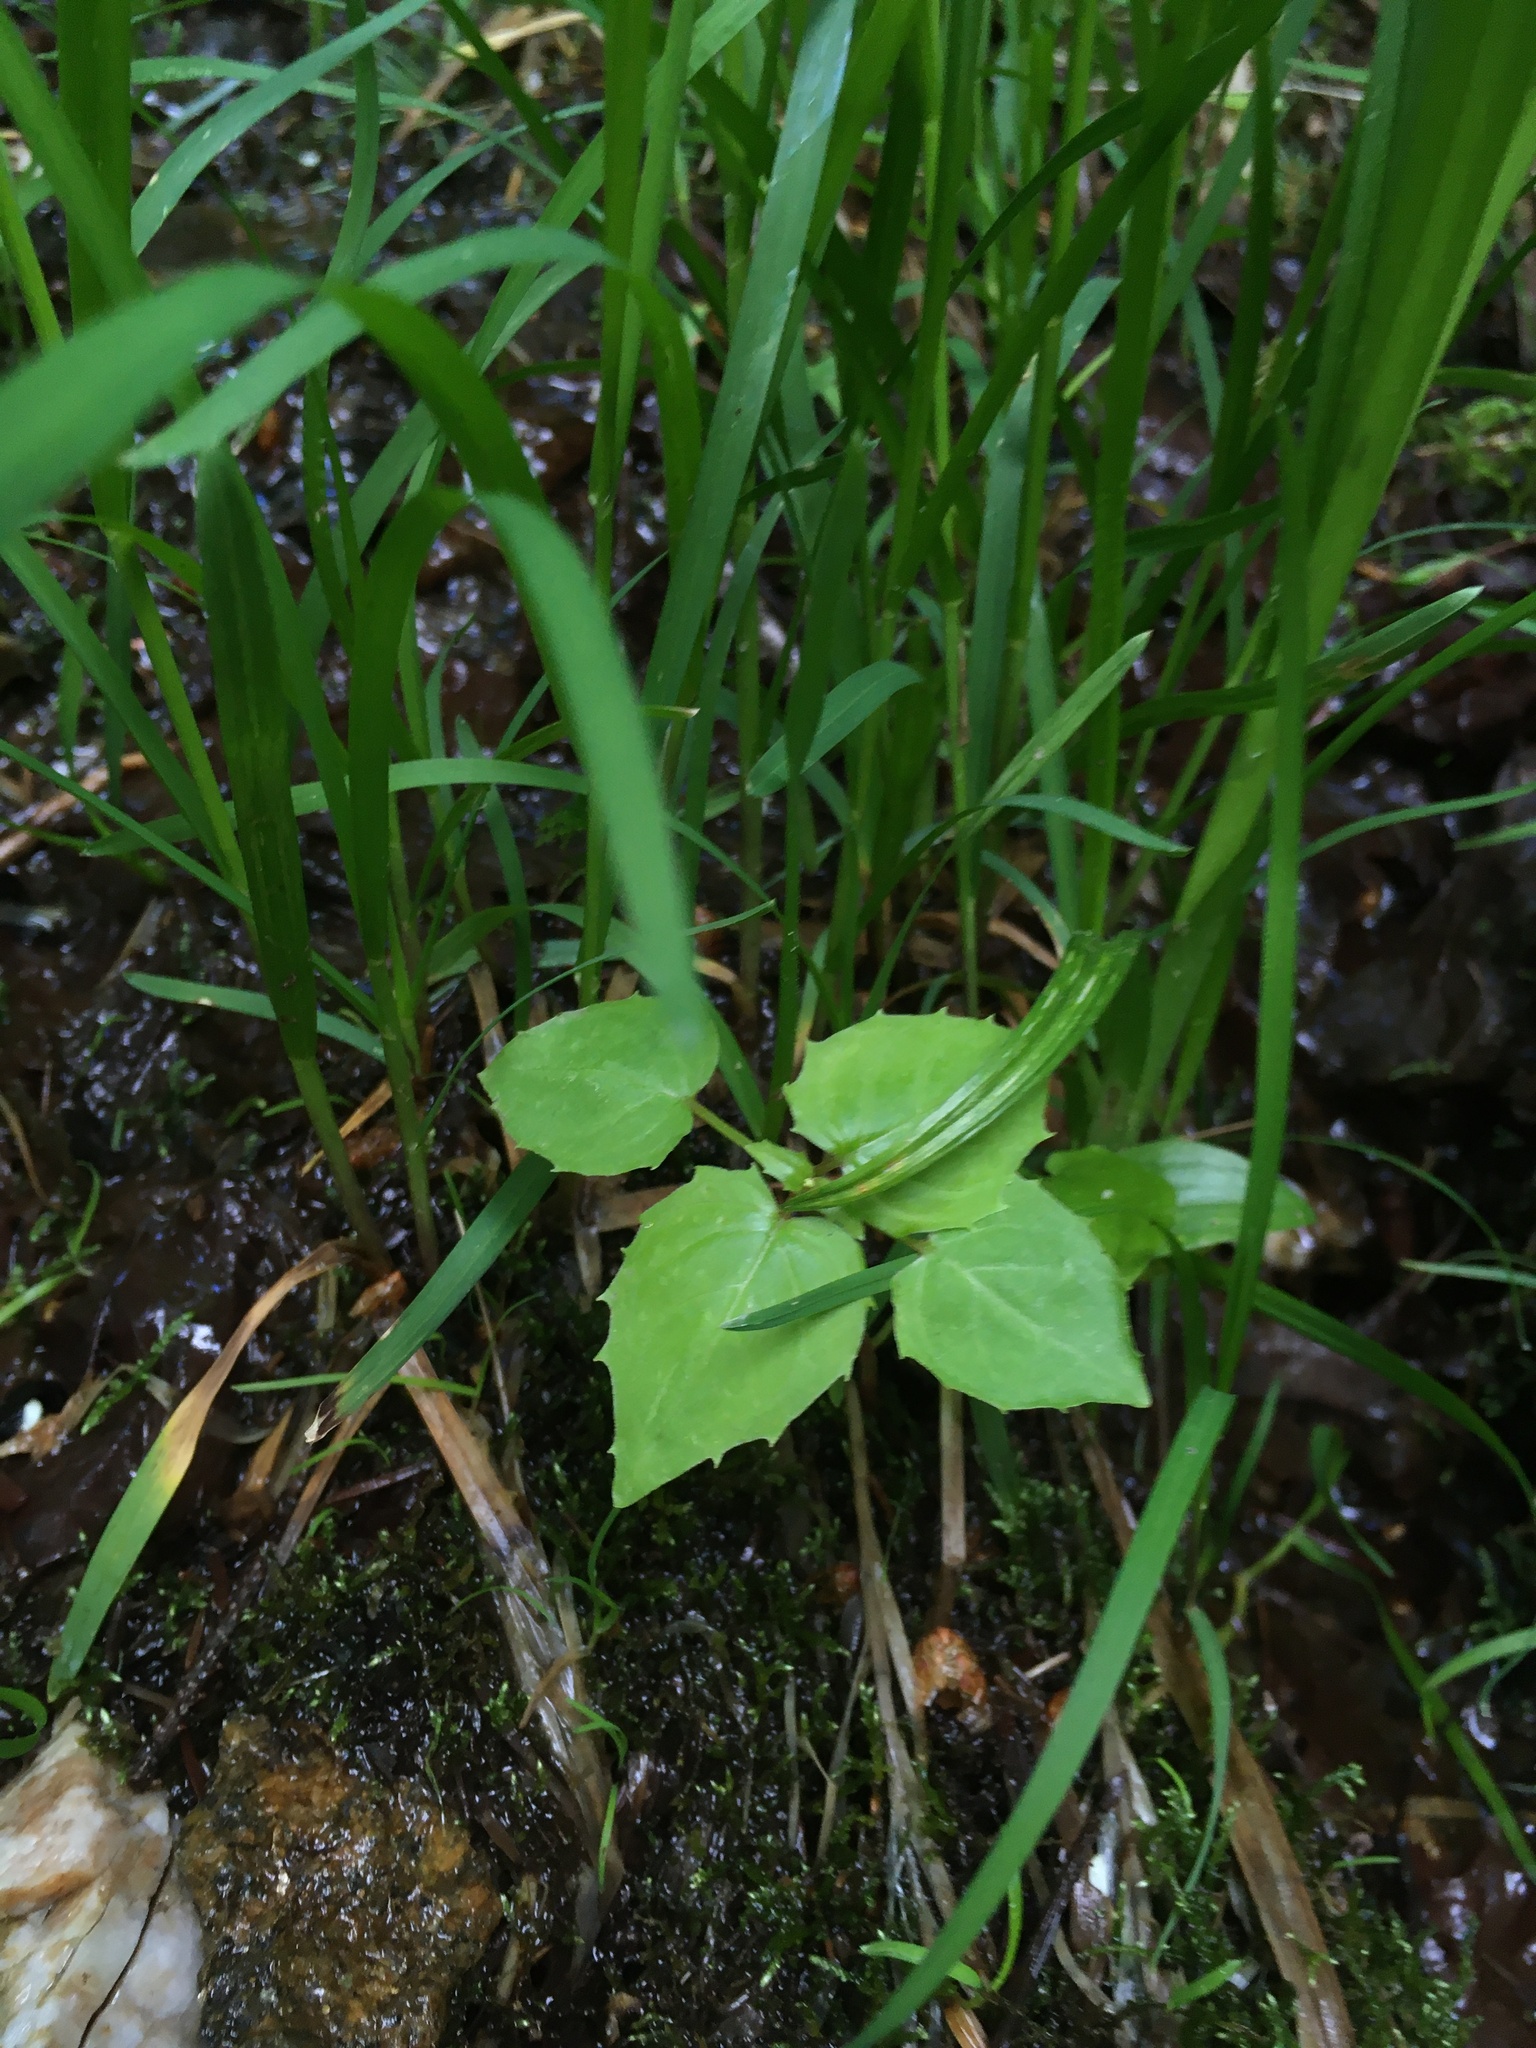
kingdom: Plantae
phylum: Tracheophyta
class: Magnoliopsida
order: Myrtales
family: Onagraceae
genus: Circaea
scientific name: Circaea alpina
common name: Alpine enchanter's-nightshade
